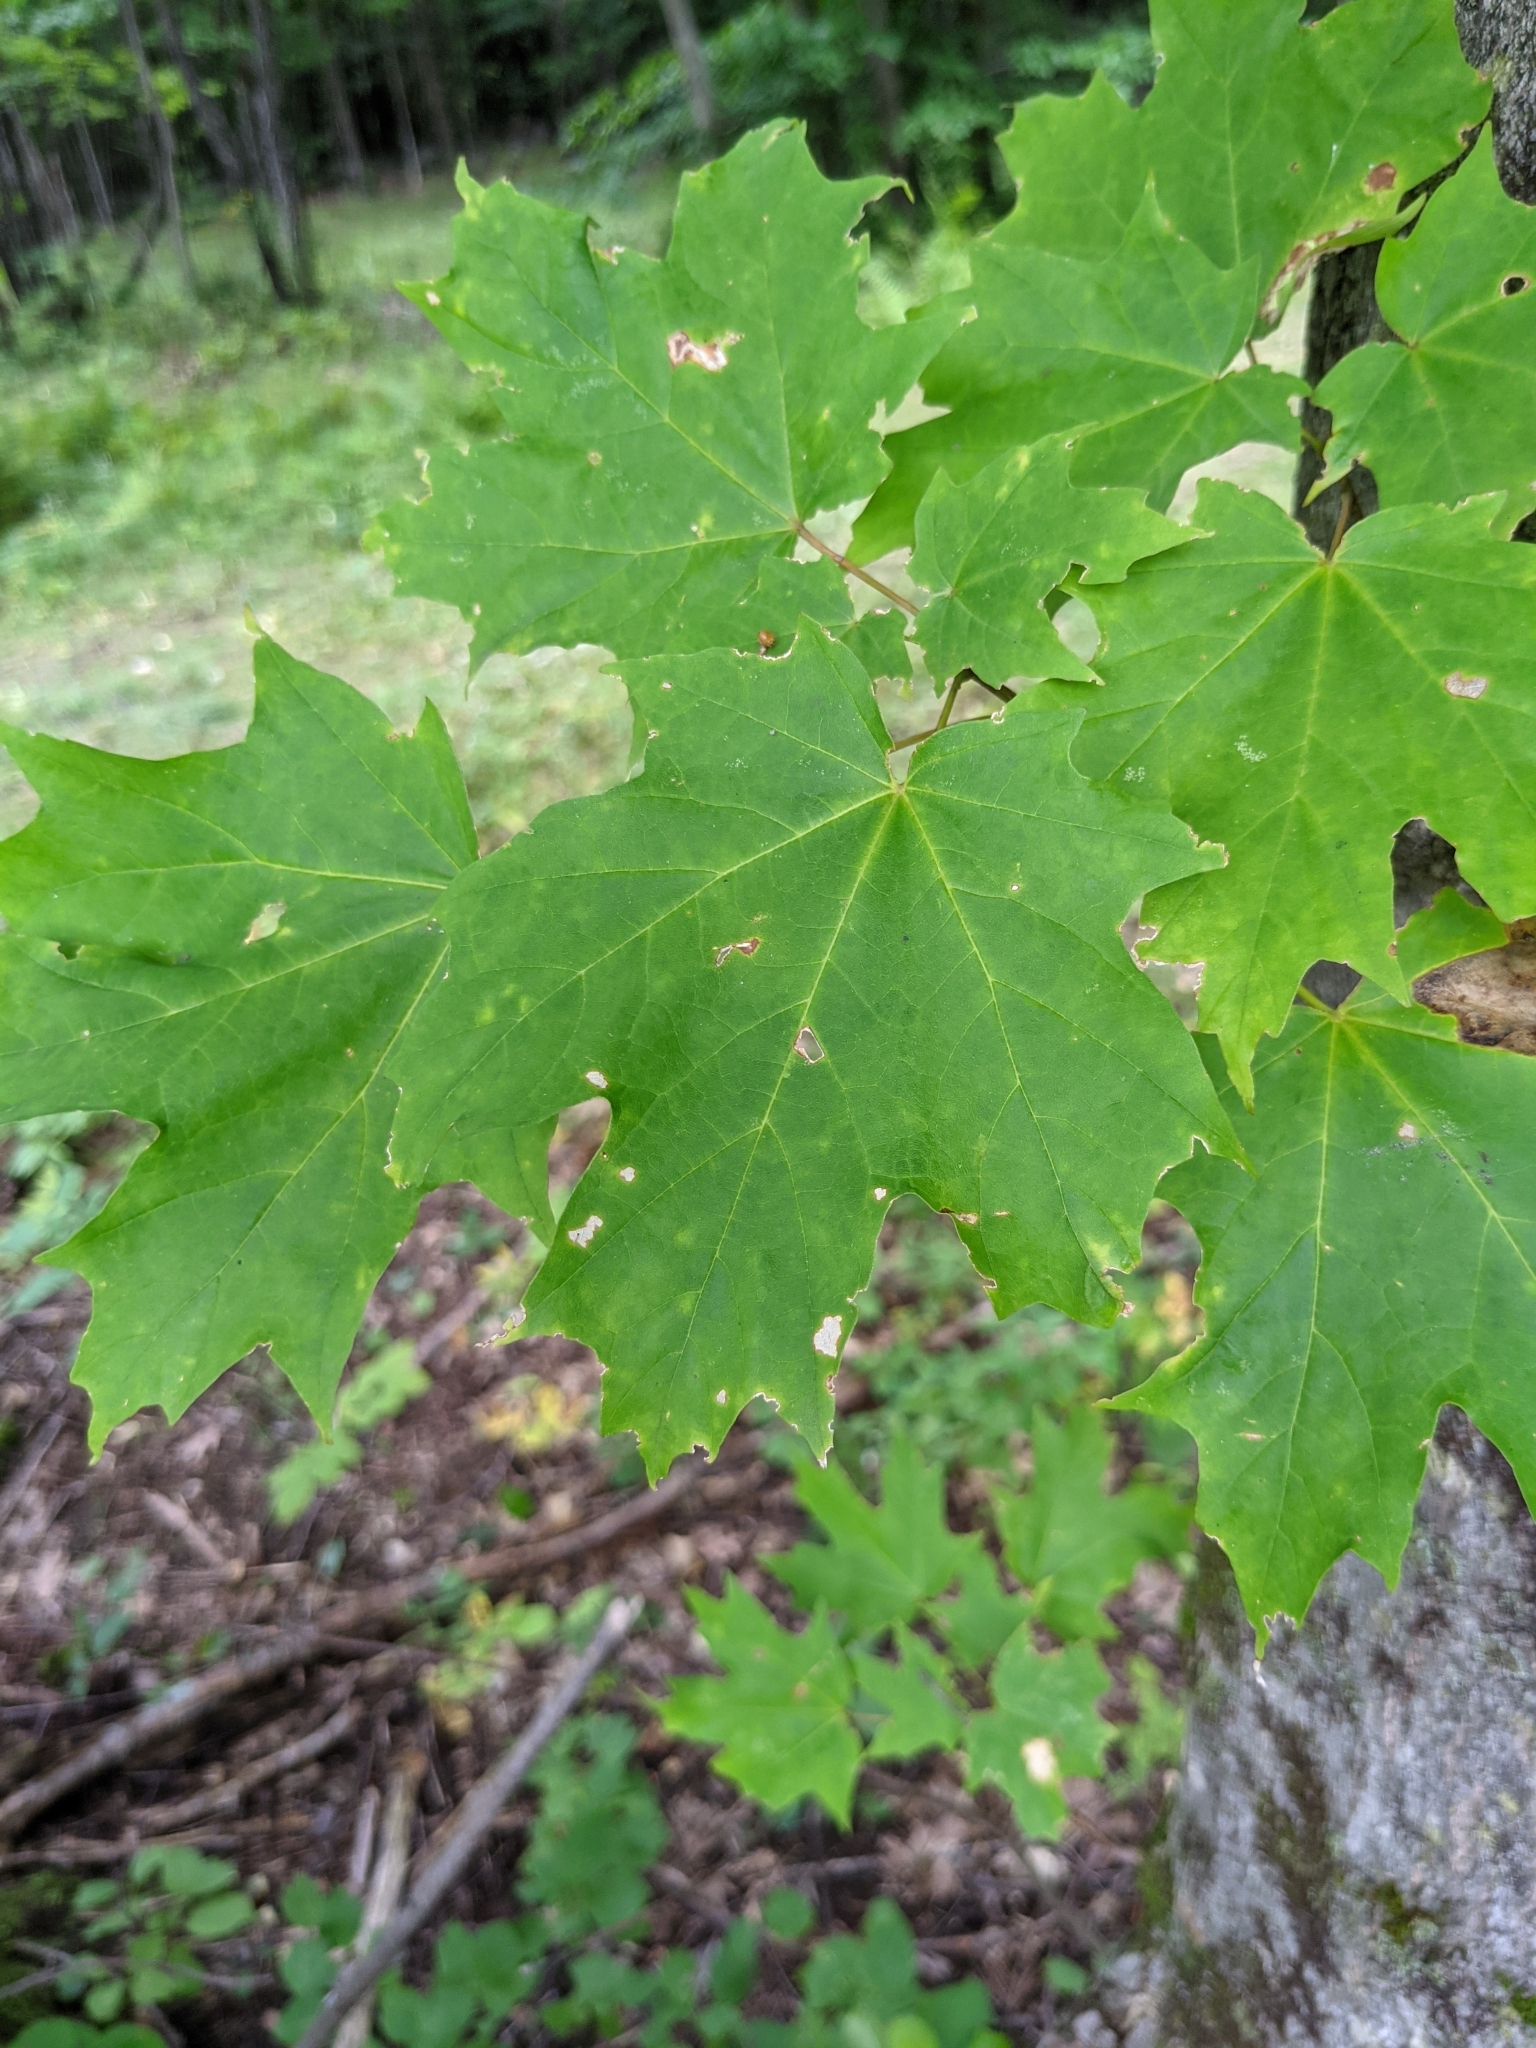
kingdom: Plantae
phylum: Tracheophyta
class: Magnoliopsida
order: Sapindales
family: Sapindaceae
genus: Acer
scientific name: Acer saccharum
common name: Sugar maple
